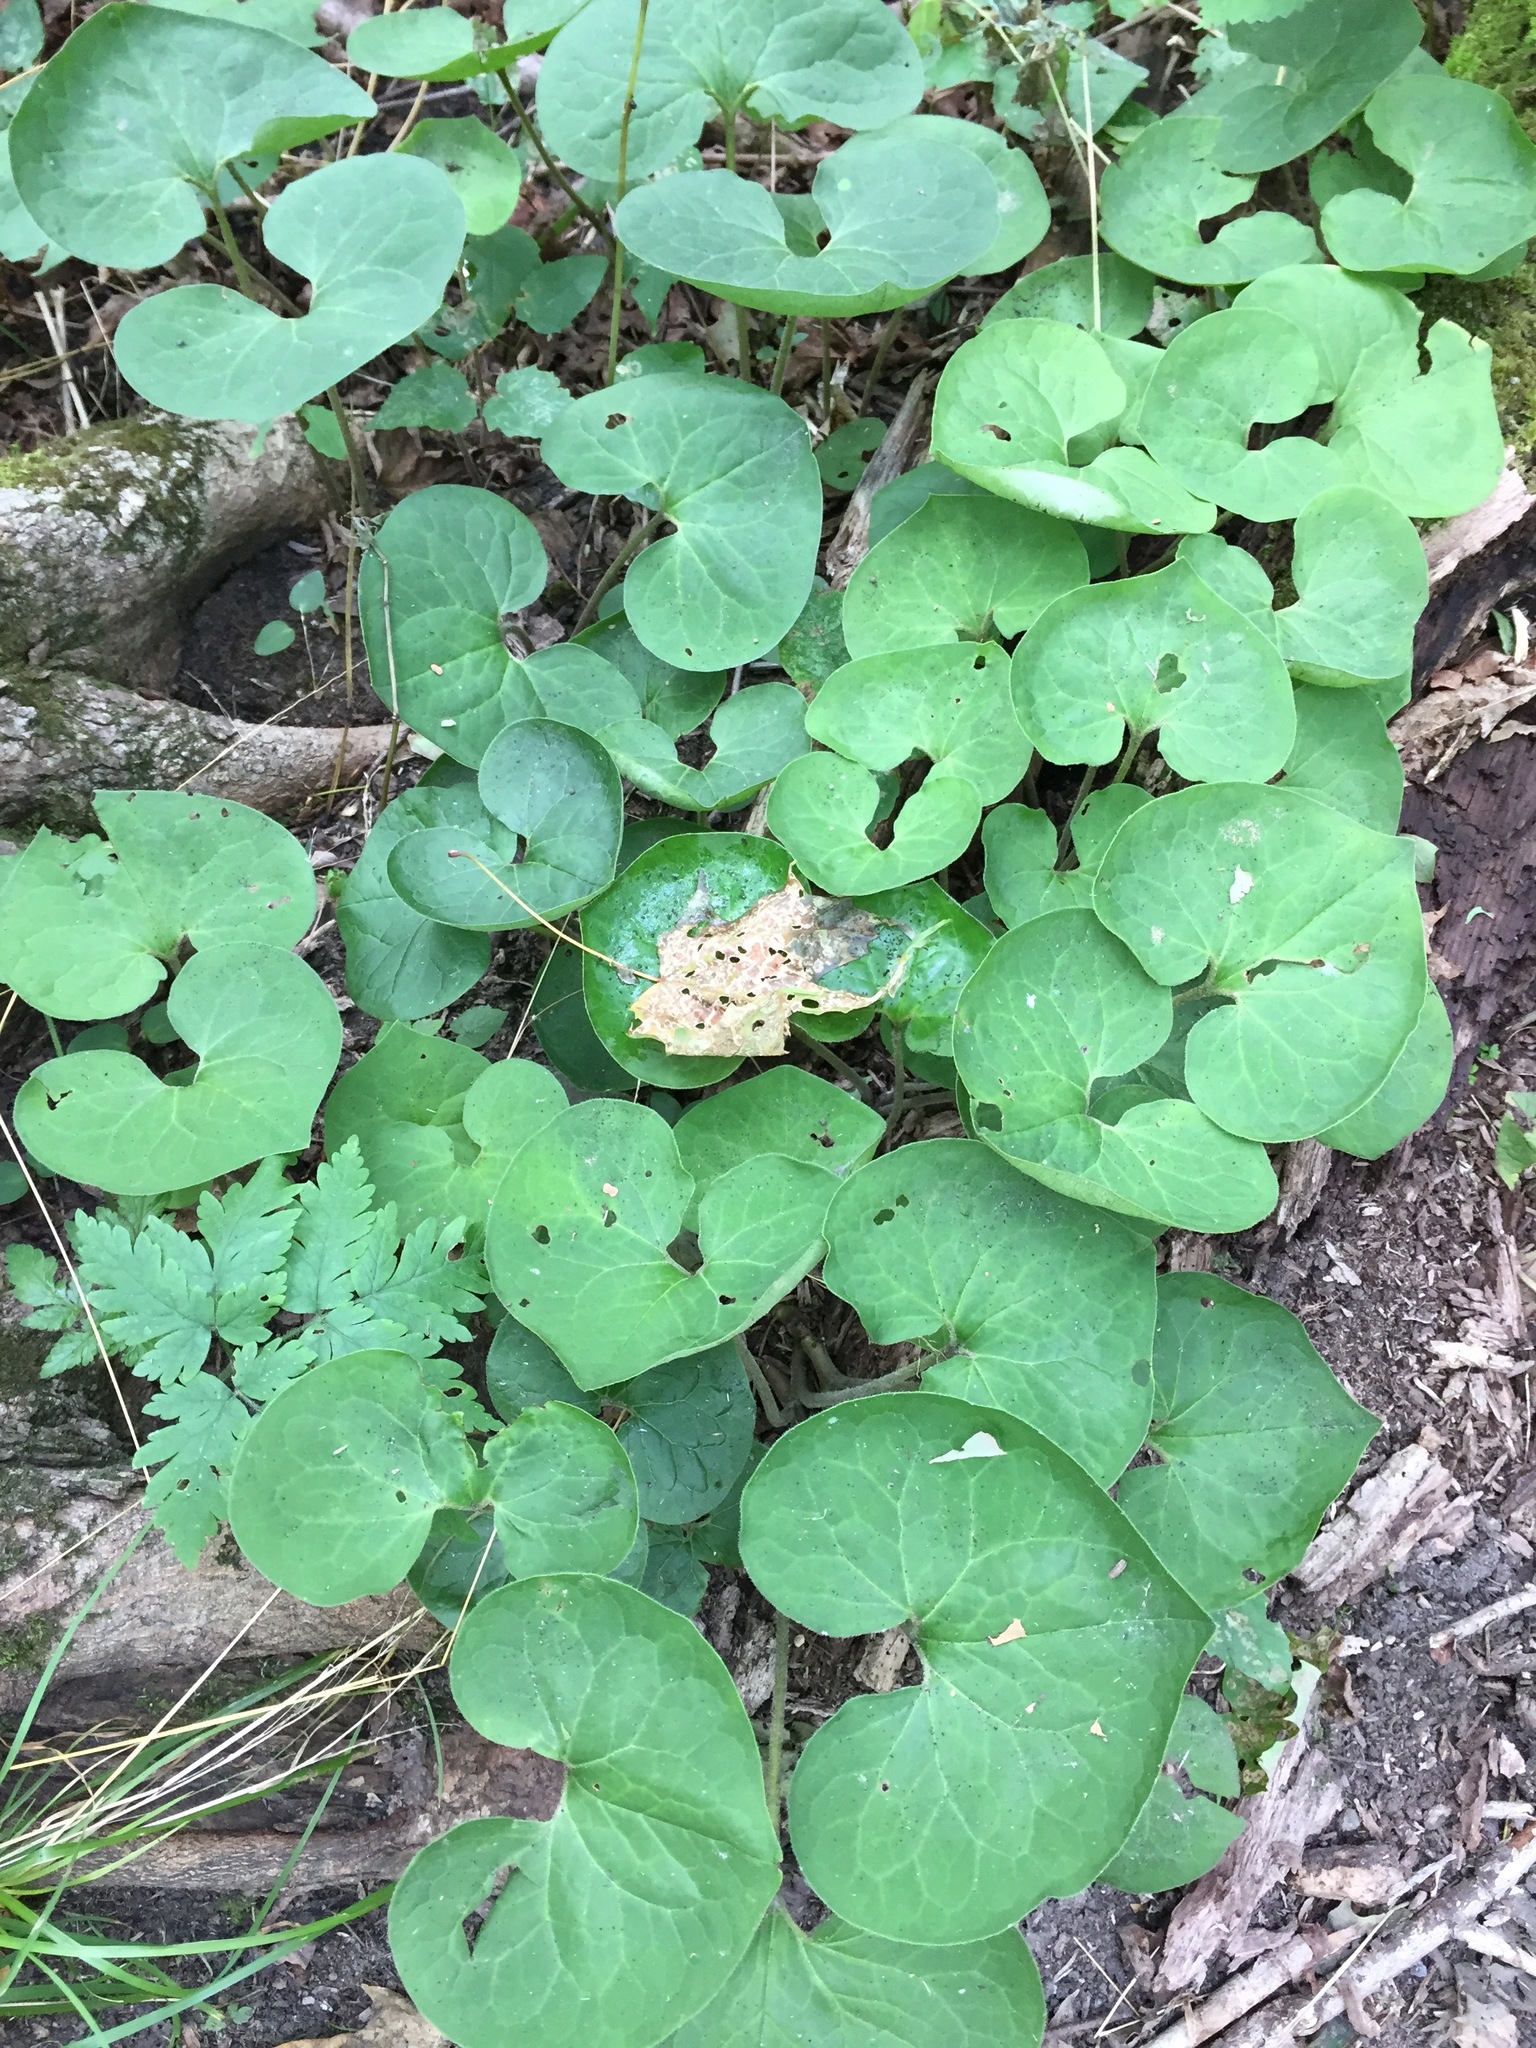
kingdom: Plantae
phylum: Tracheophyta
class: Magnoliopsida
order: Piperales
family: Aristolochiaceae
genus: Asarum
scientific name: Asarum canadense
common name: Wild ginger
